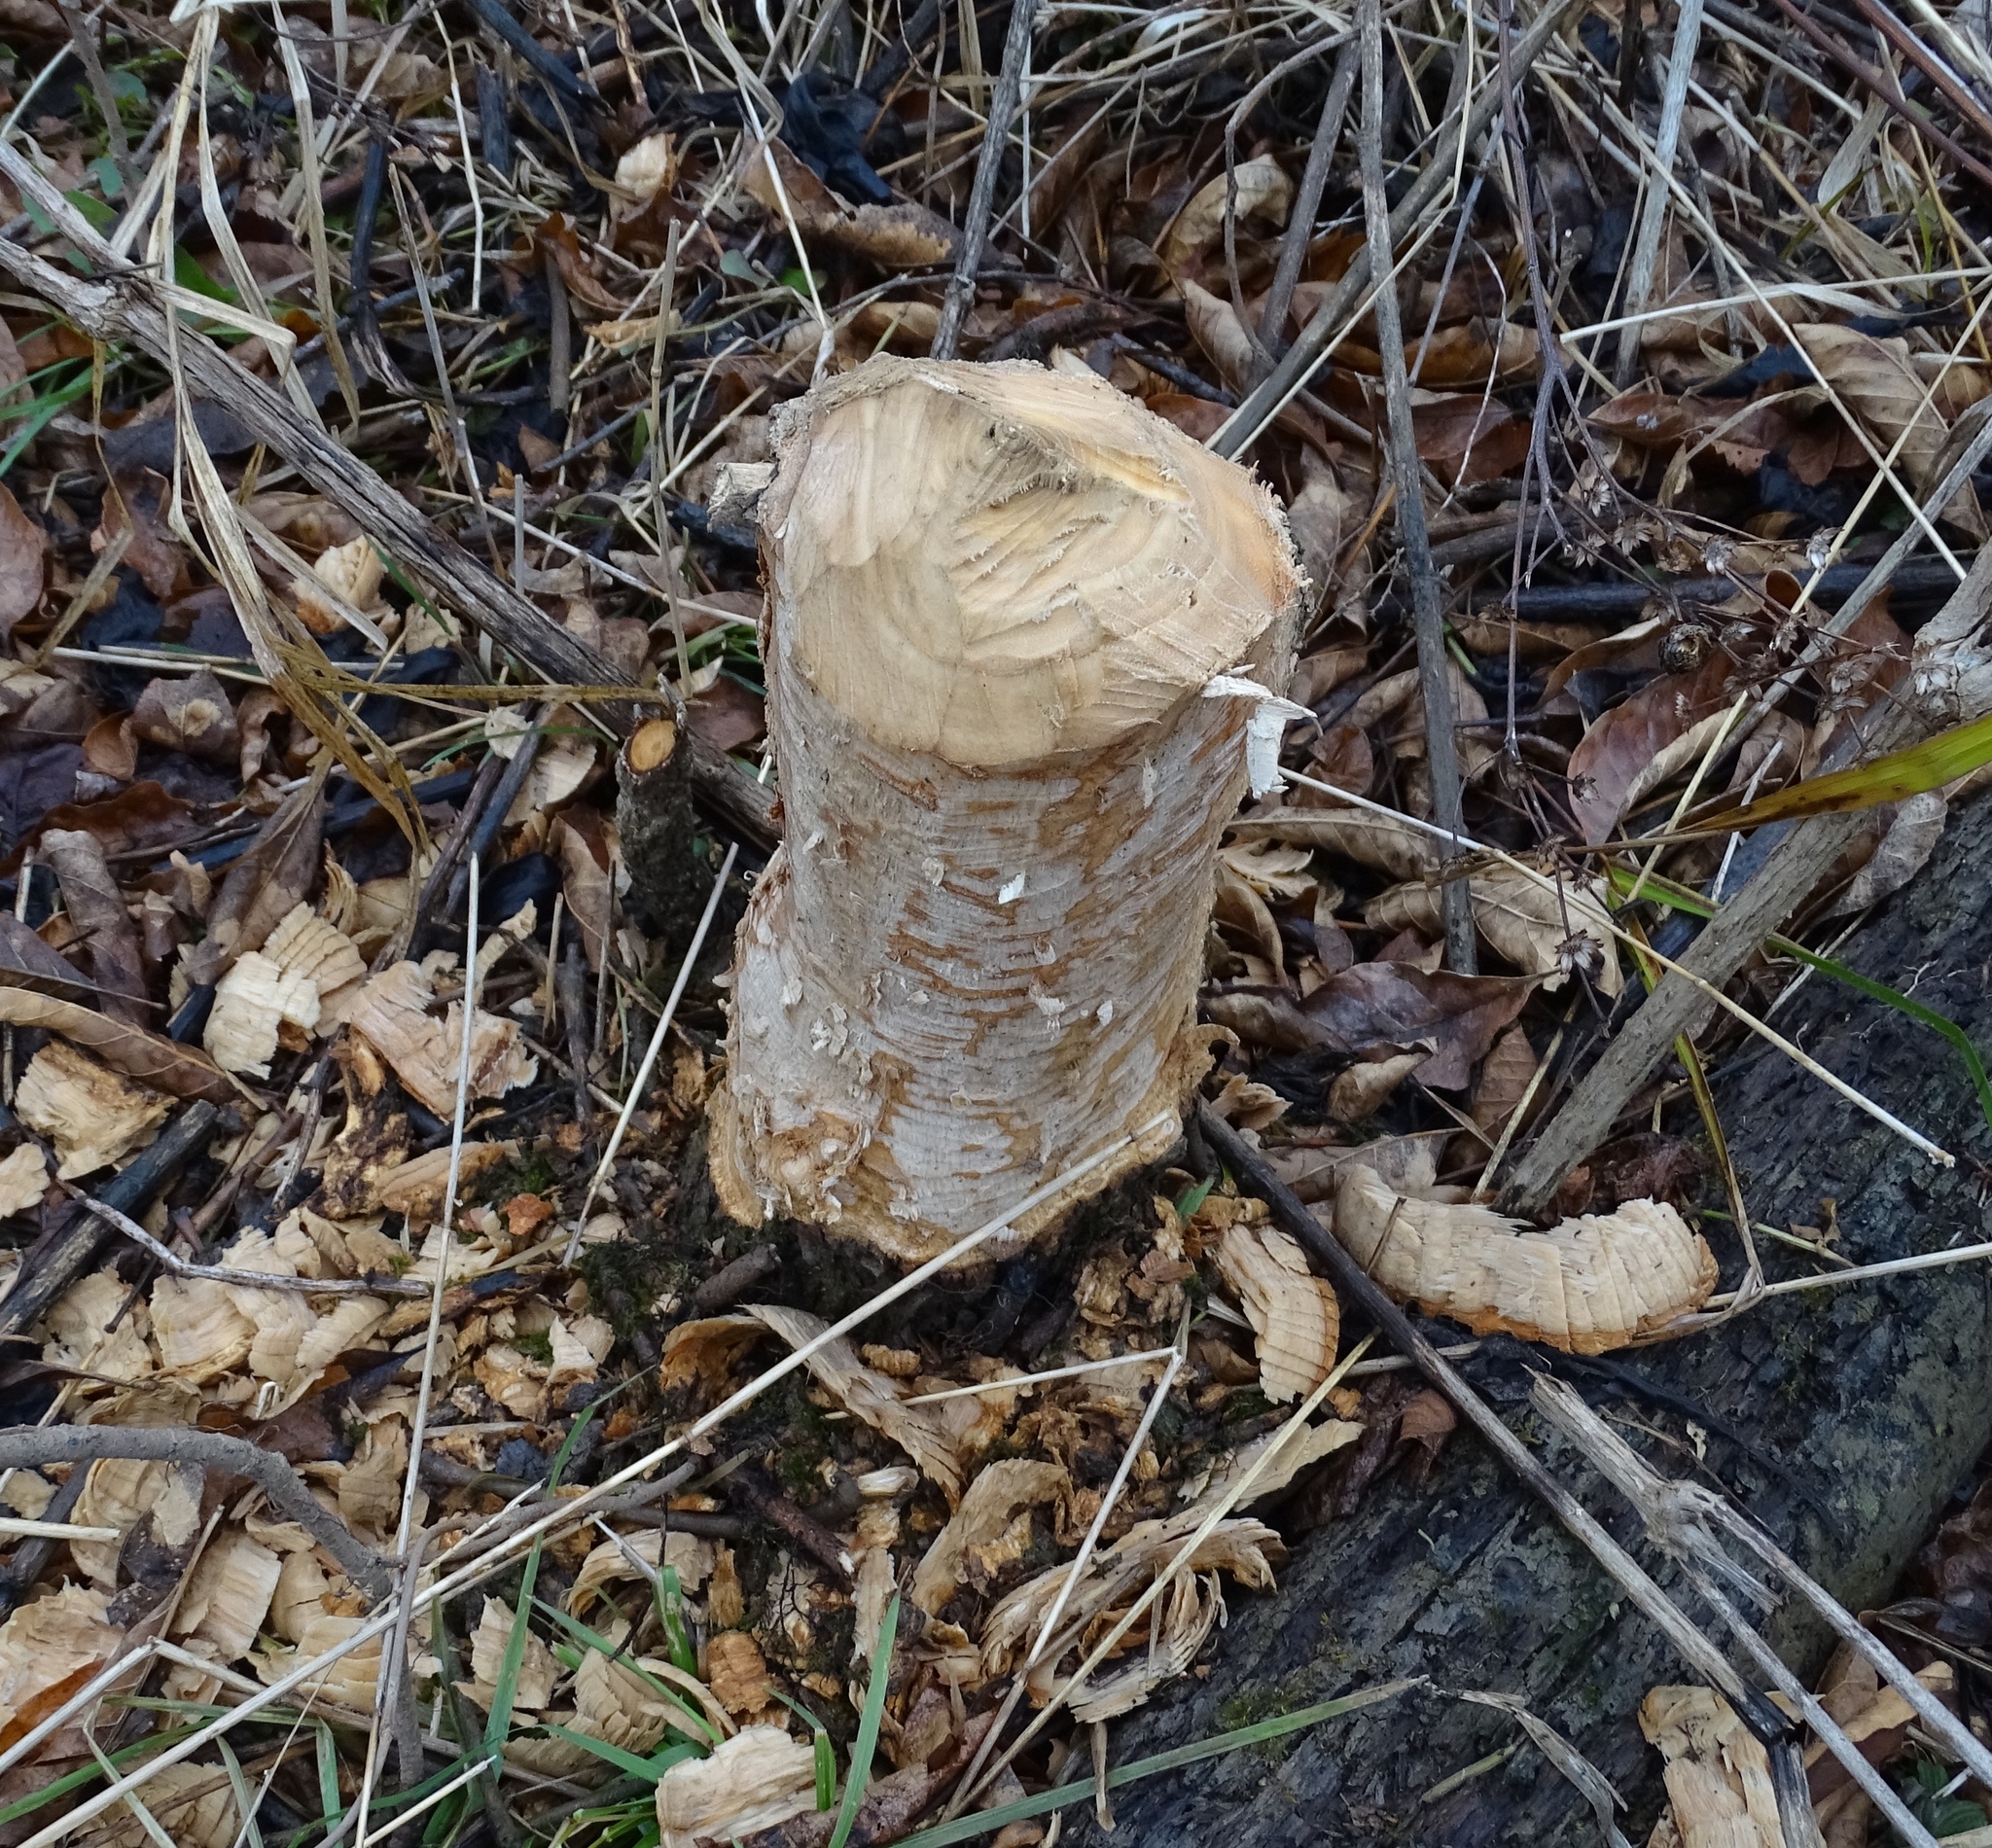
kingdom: Animalia
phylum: Chordata
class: Mammalia
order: Rodentia
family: Castoridae
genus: Castor
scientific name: Castor canadensis
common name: American beaver
